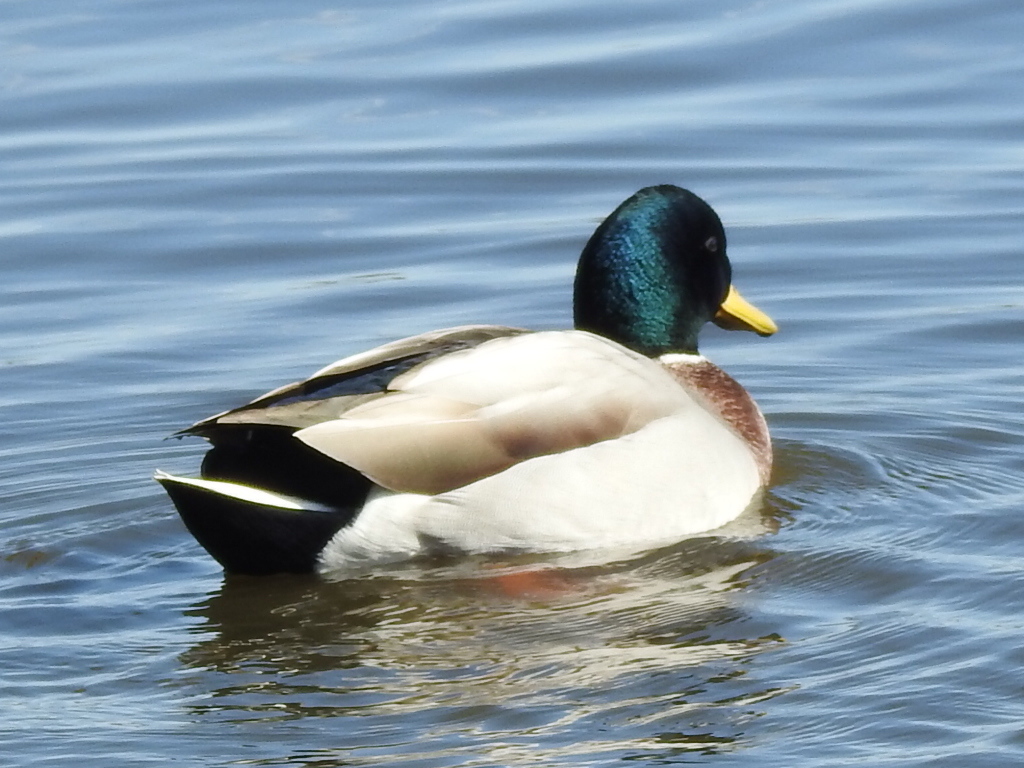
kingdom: Animalia
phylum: Chordata
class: Aves
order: Anseriformes
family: Anatidae
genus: Anas
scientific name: Anas platyrhynchos
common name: Mallard
